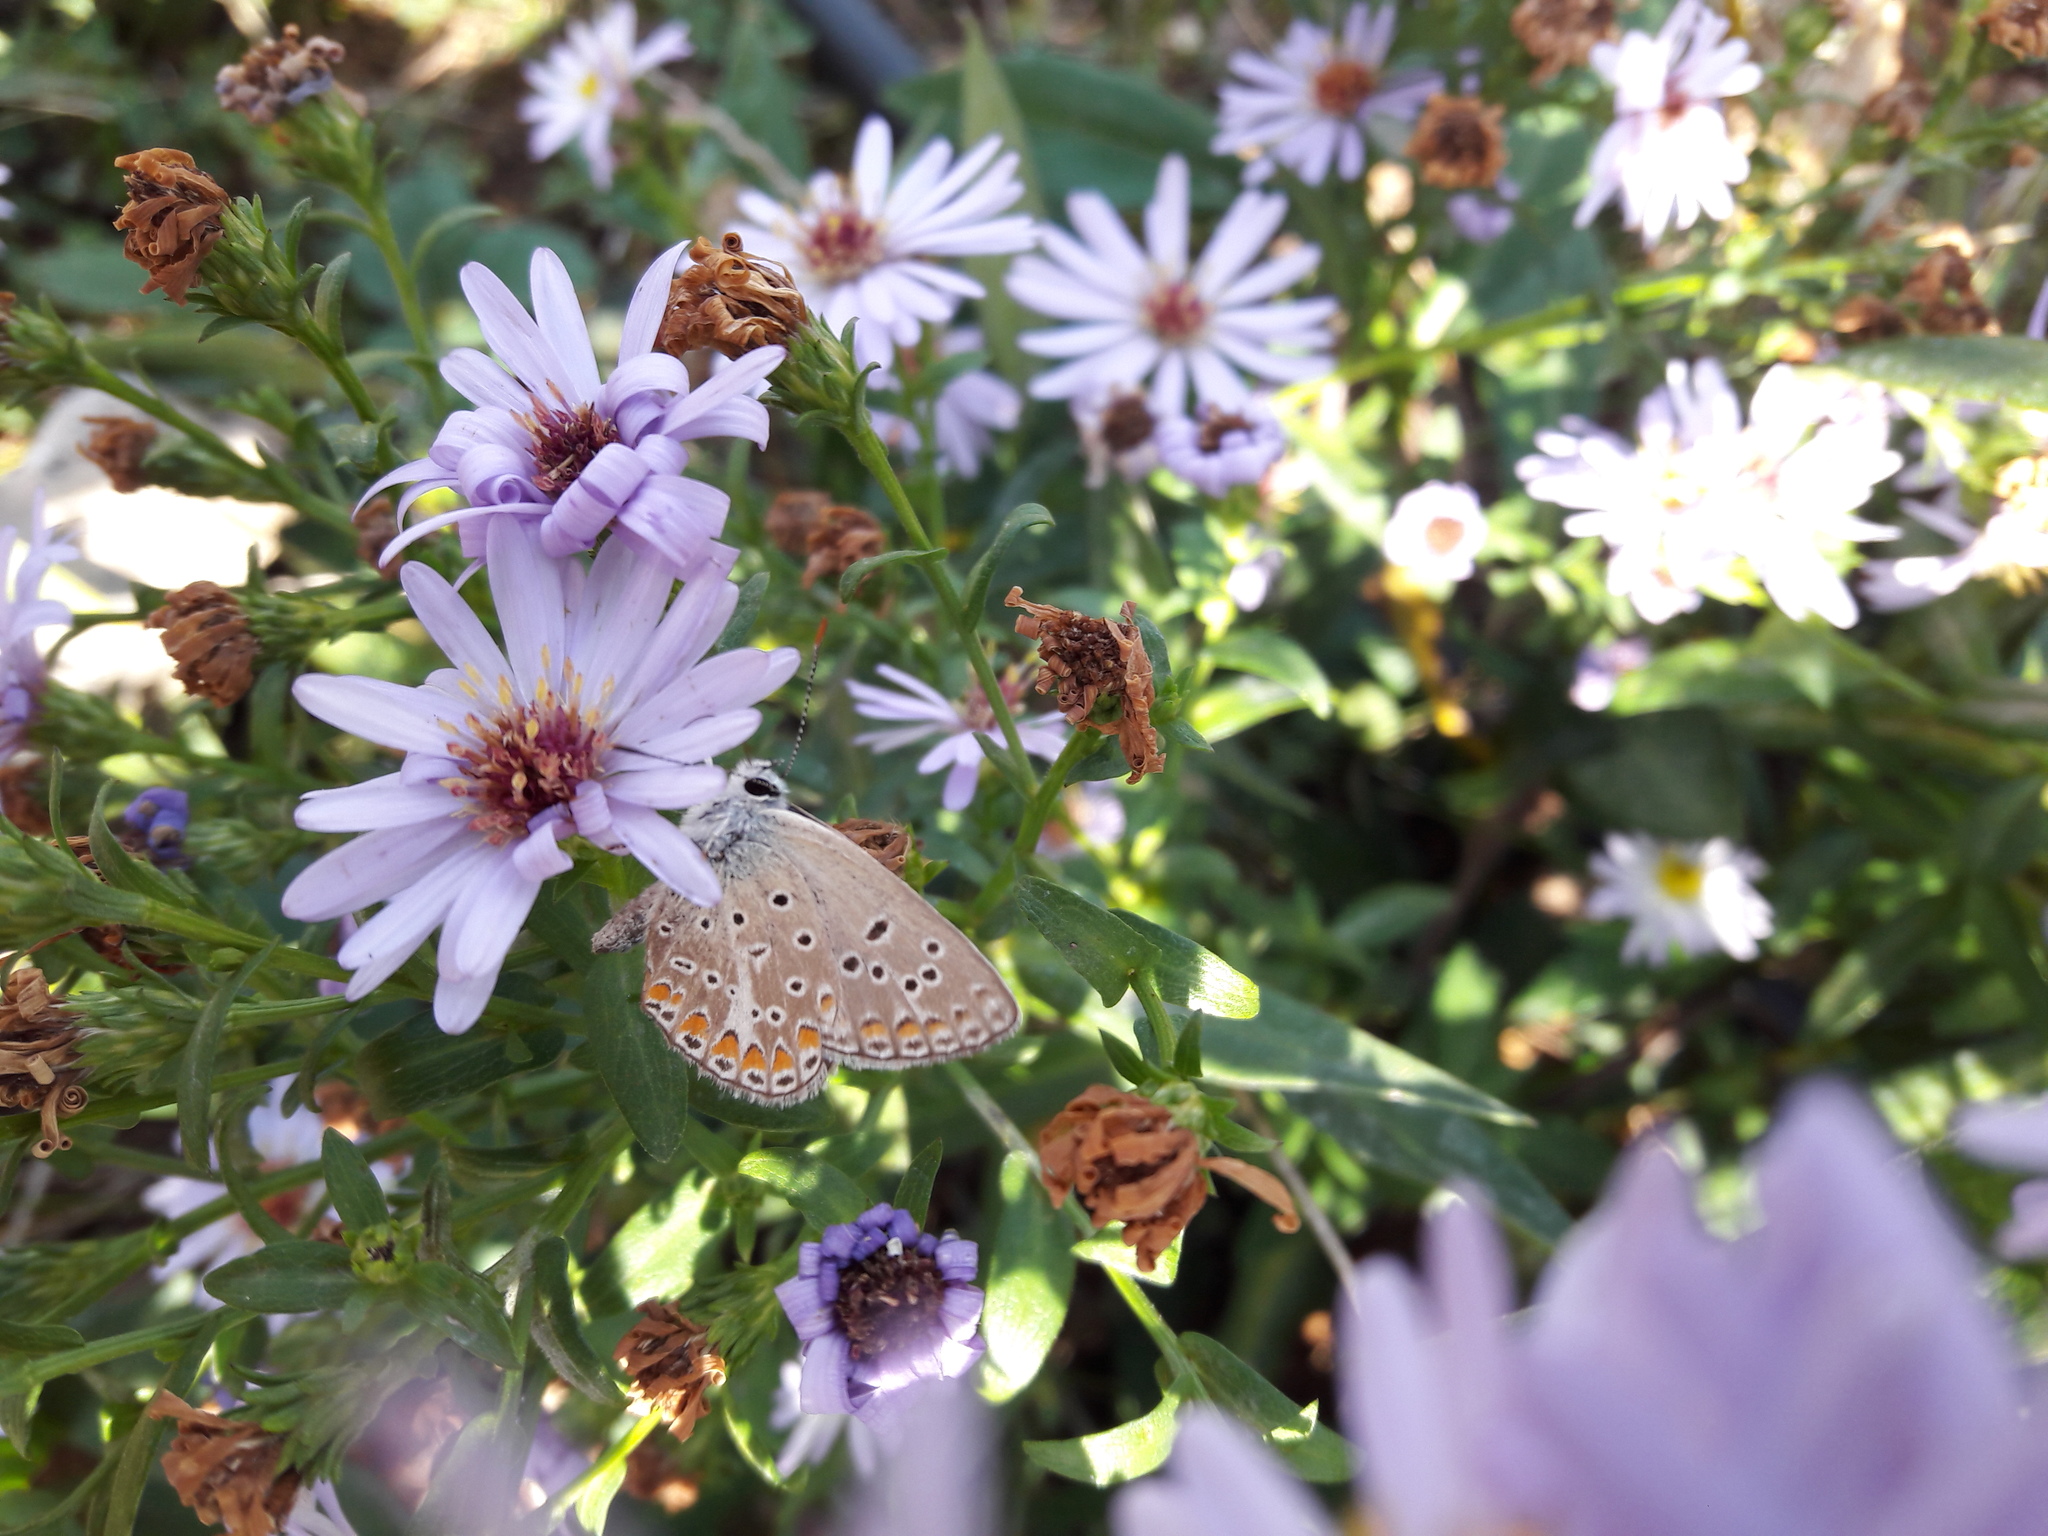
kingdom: Animalia
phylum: Arthropoda
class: Insecta
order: Lepidoptera
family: Lycaenidae
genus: Polyommatus
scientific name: Polyommatus thersites
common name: Chapman's blue
